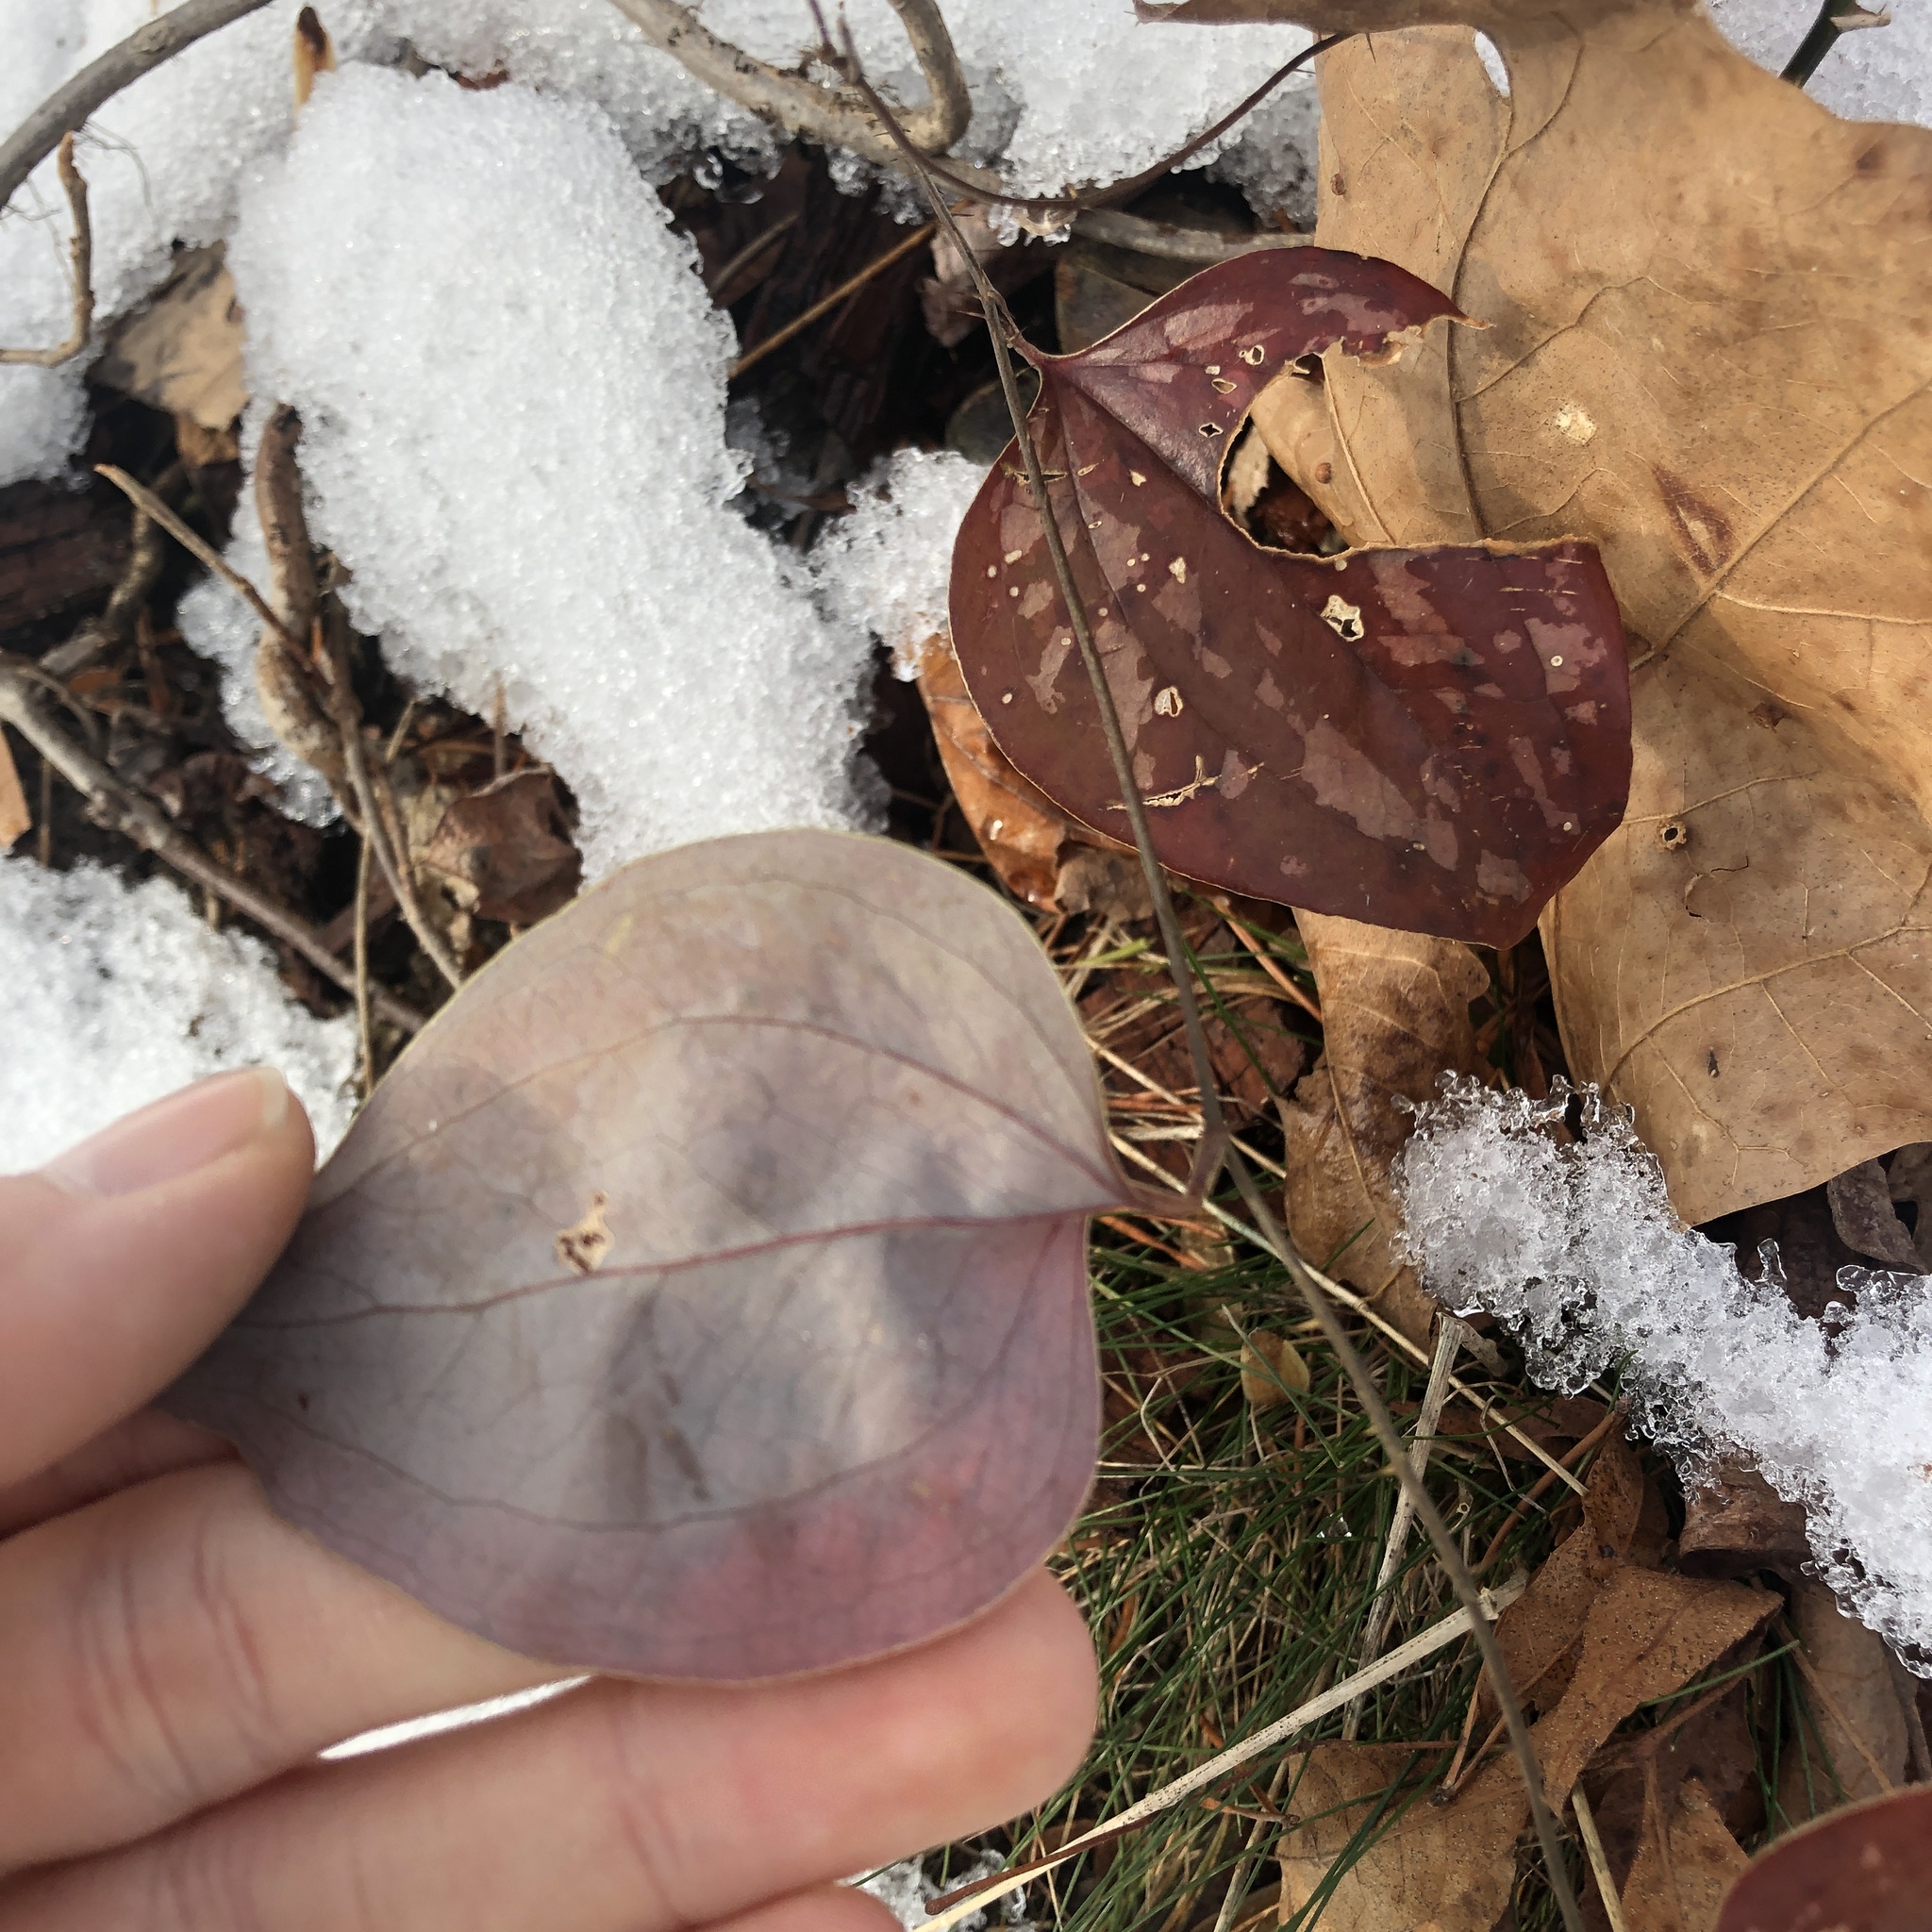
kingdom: Plantae
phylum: Tracheophyta
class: Liliopsida
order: Liliales
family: Smilacaceae
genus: Smilax
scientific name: Smilax glauca
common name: Cat greenbrier
